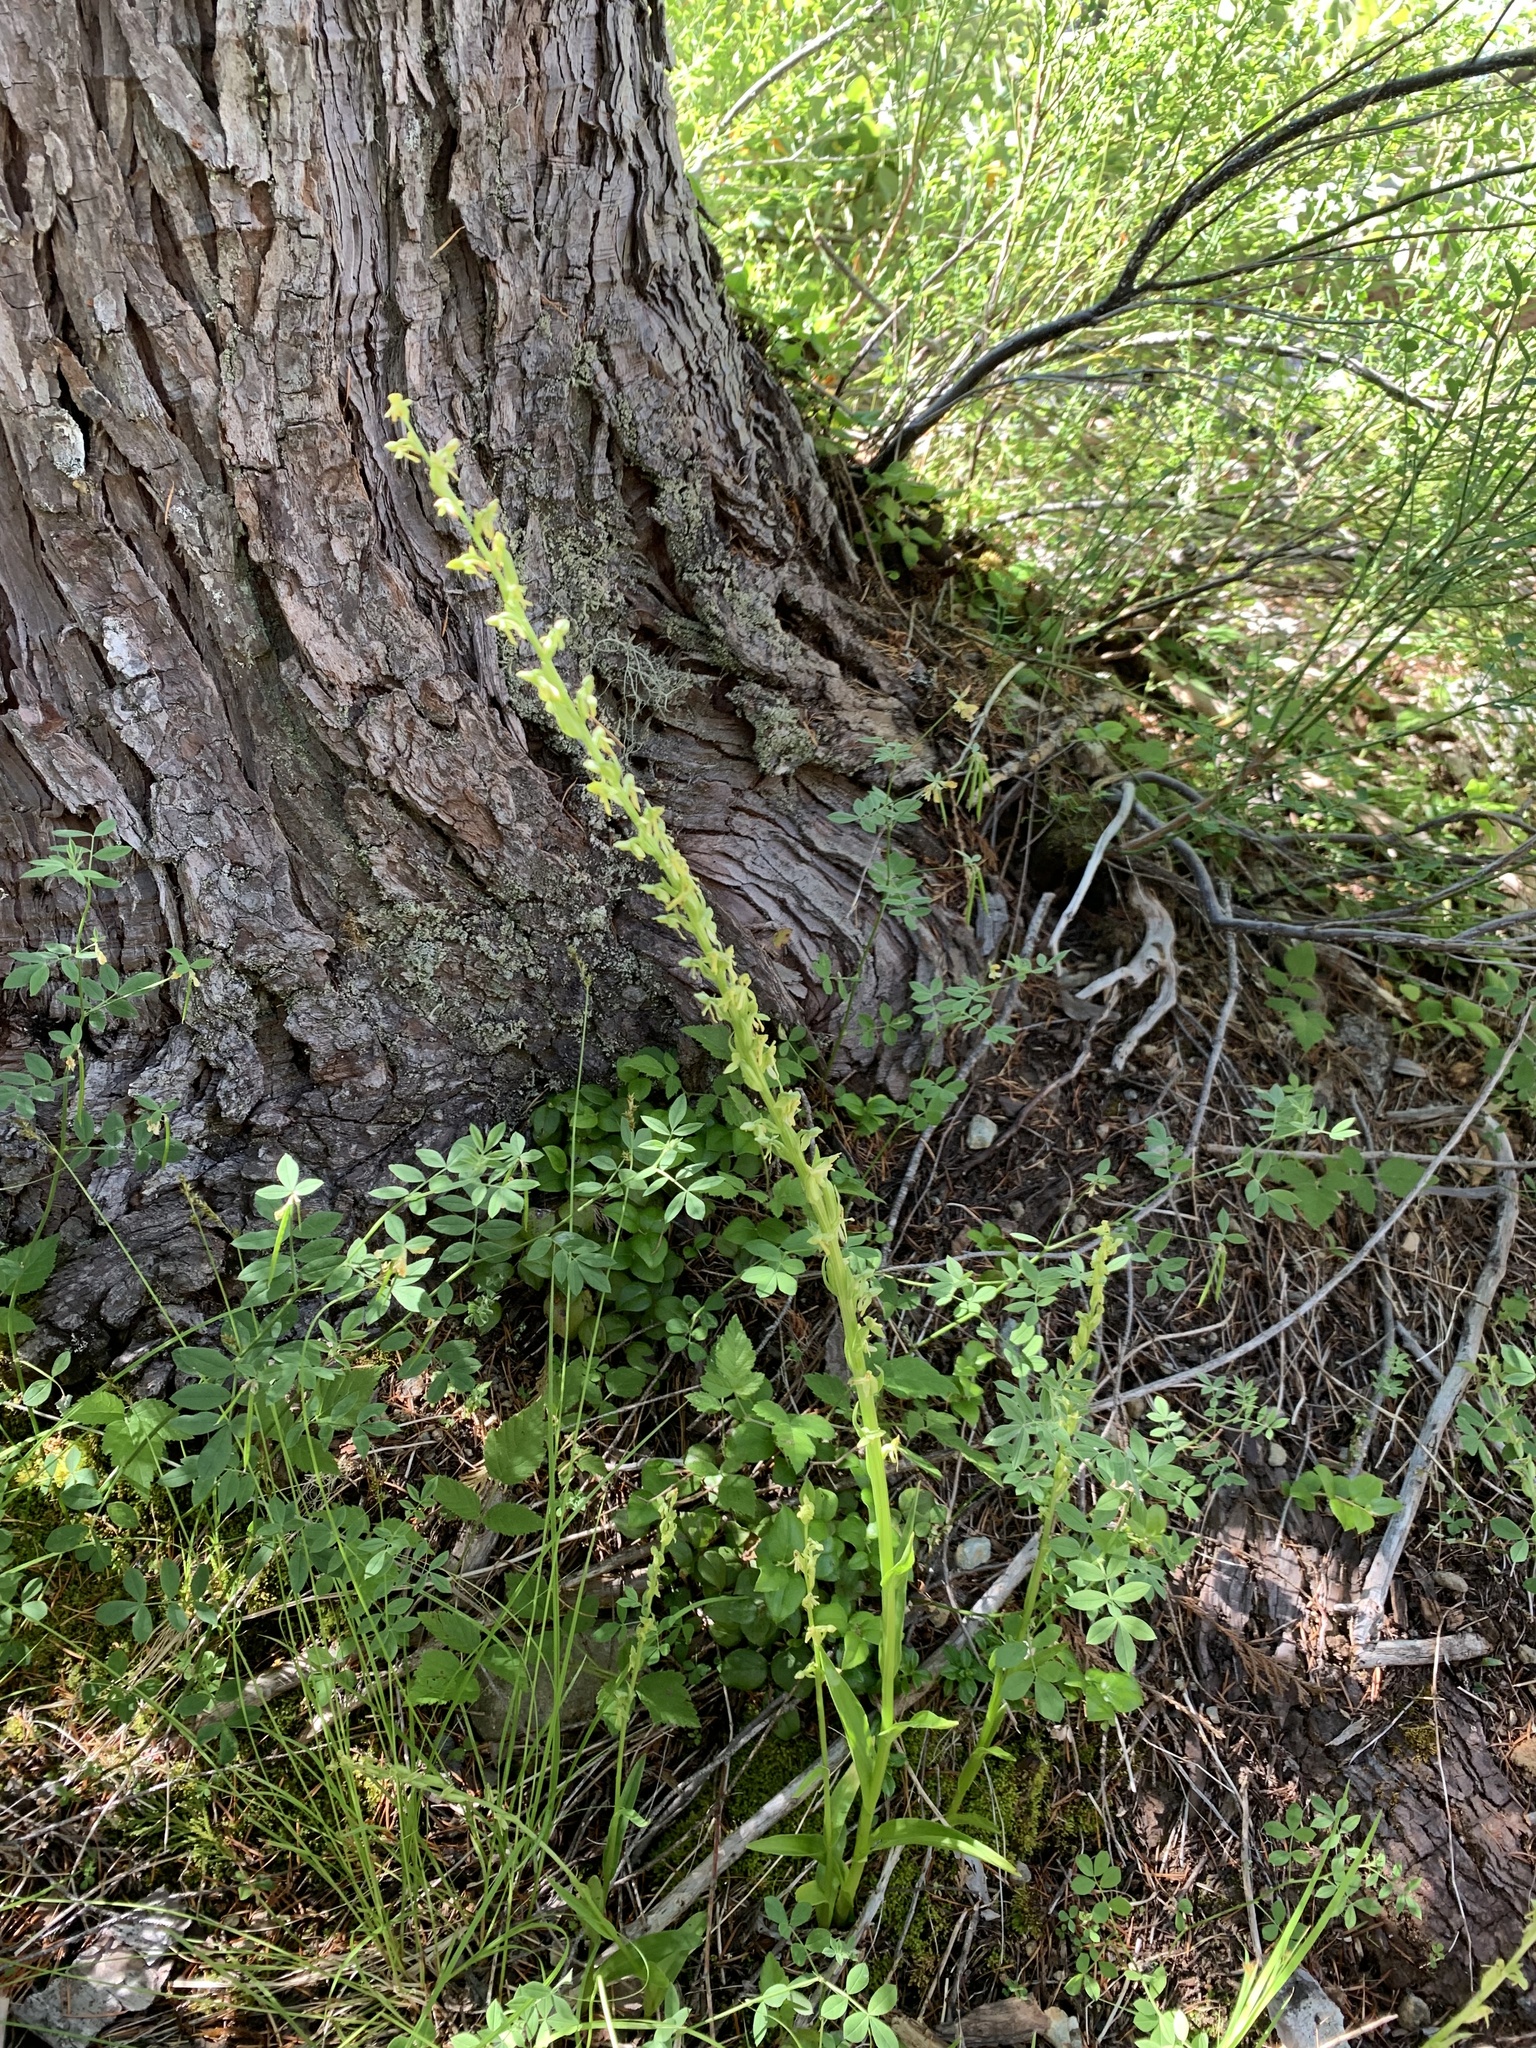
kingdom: Plantae
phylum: Tracheophyta
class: Liliopsida
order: Asparagales
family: Orchidaceae
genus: Platanthera
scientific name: Platanthera sparsiflora
